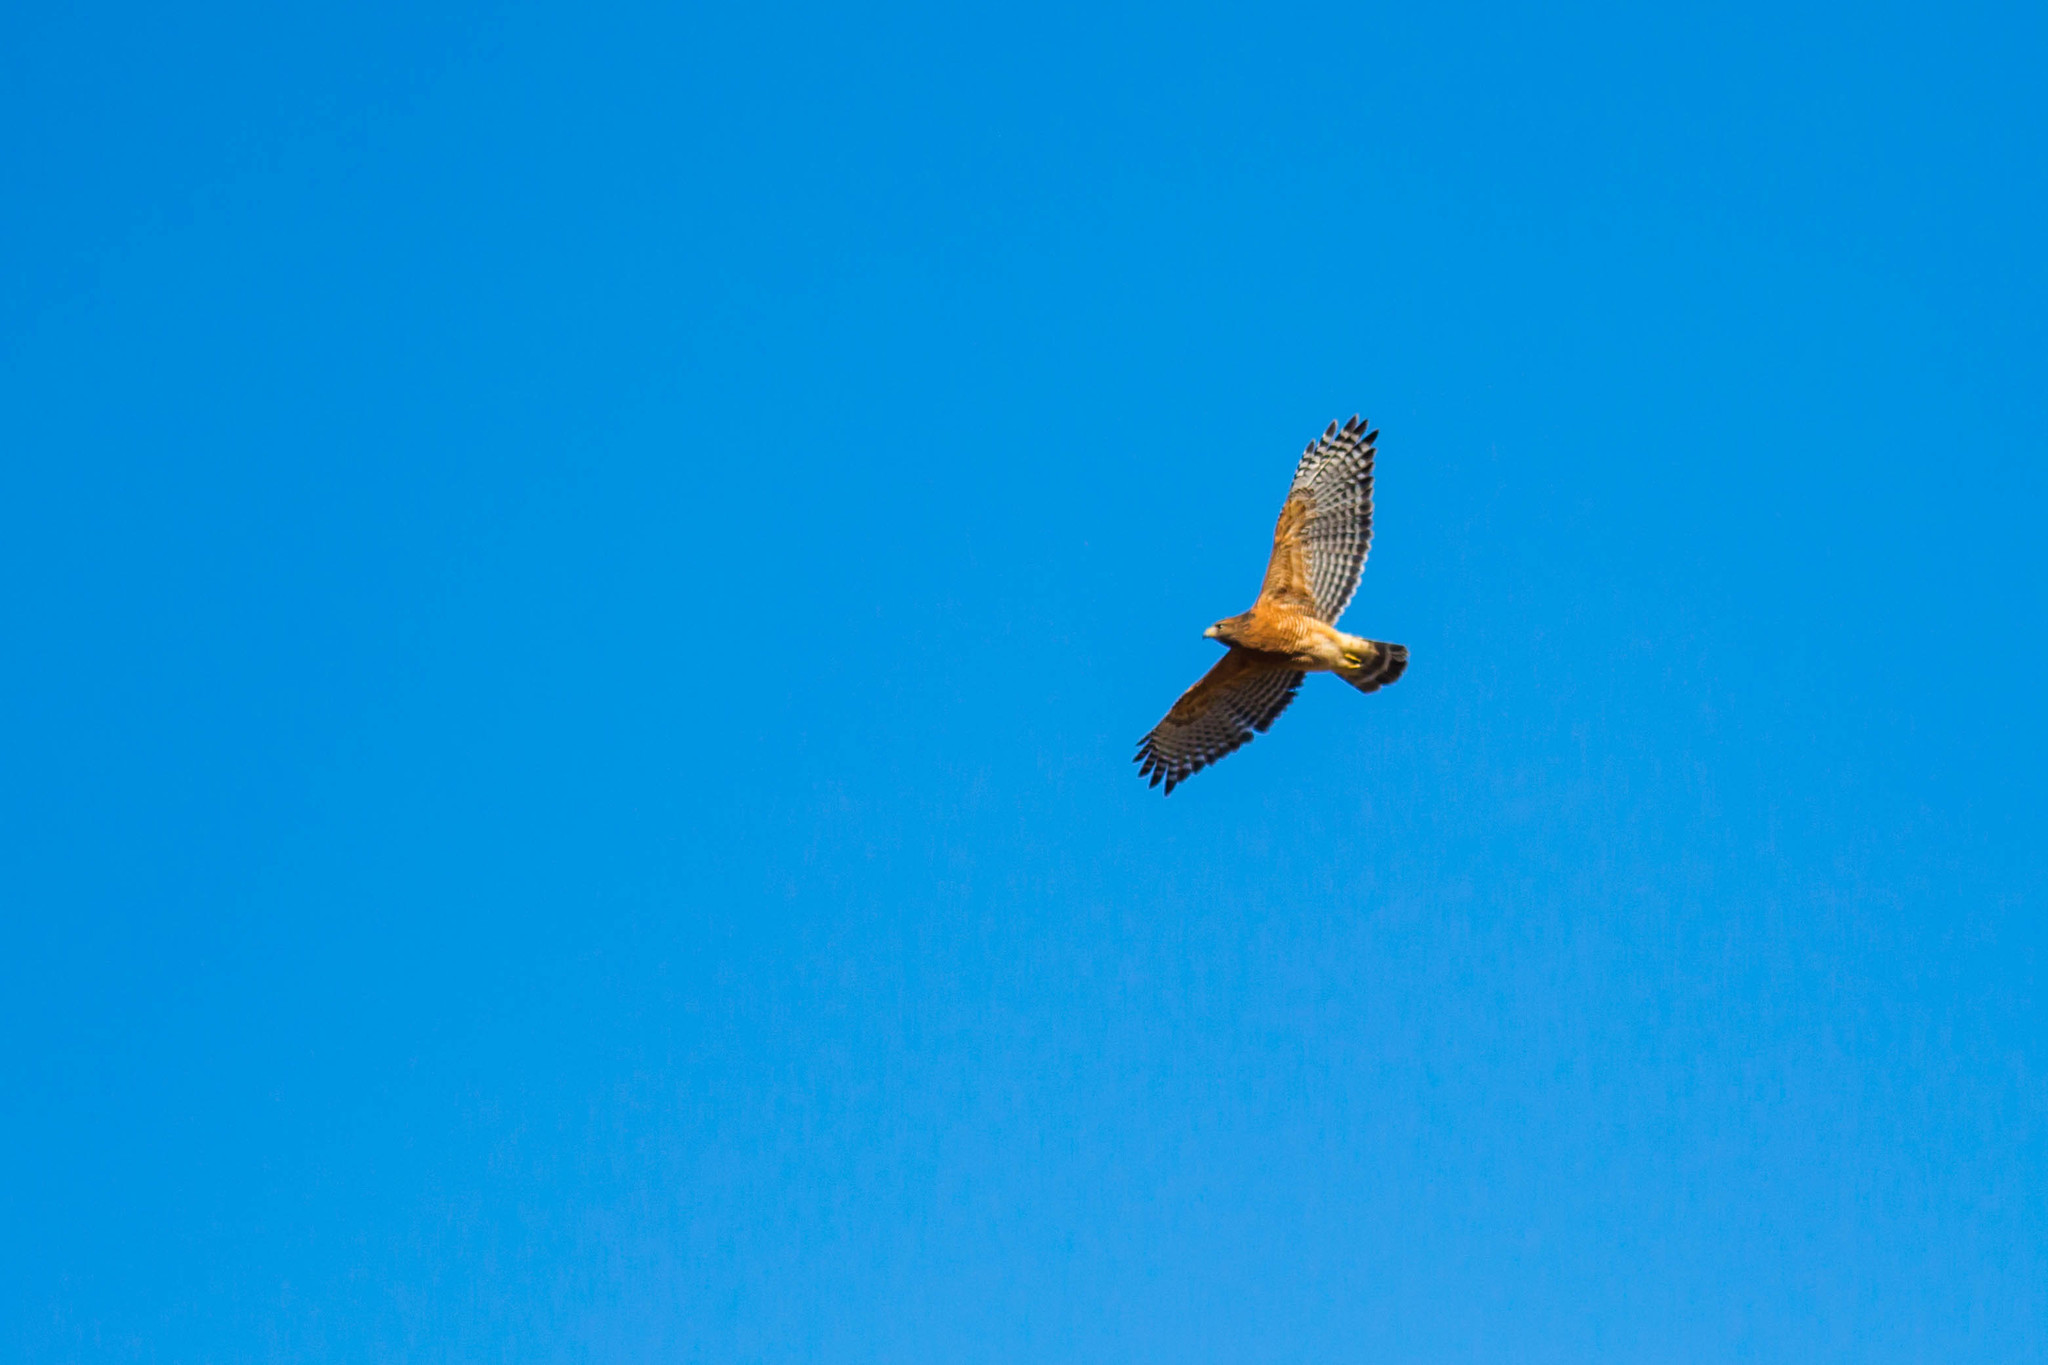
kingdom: Animalia
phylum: Chordata
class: Aves
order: Accipitriformes
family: Accipitridae
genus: Buteo
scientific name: Buteo lineatus
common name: Red-shouldered hawk
